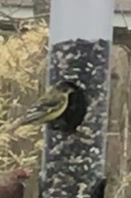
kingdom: Animalia
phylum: Chordata
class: Aves
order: Passeriformes
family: Fringillidae
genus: Spinus
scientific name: Spinus psaltria
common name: Lesser goldfinch
